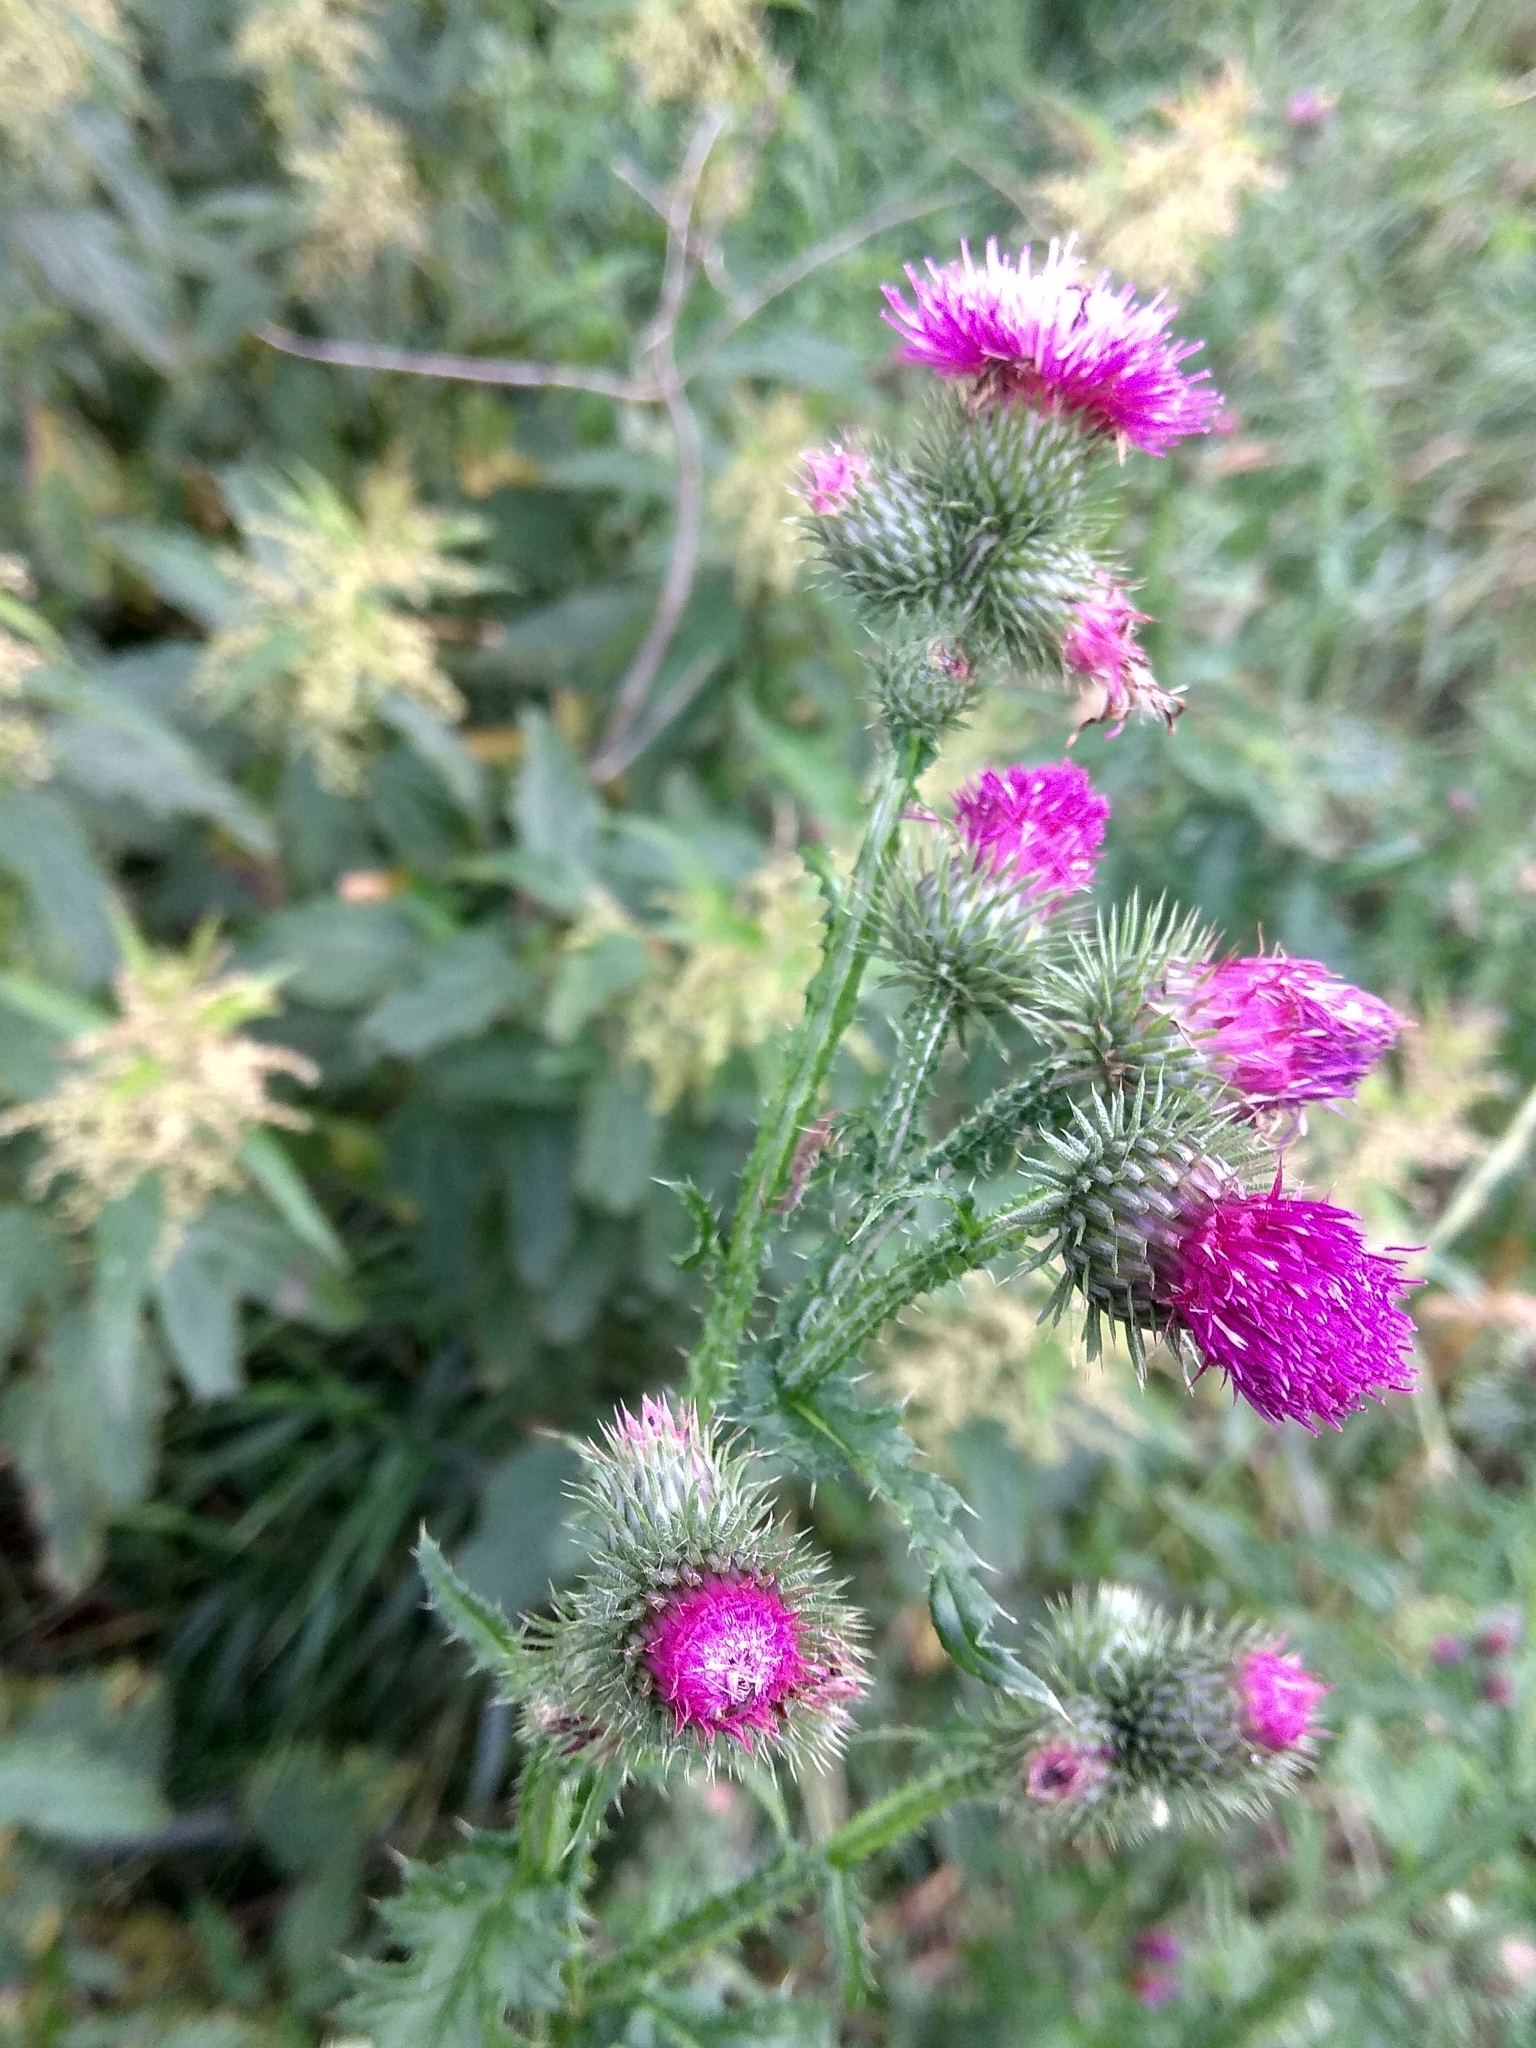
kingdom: Plantae
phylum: Tracheophyta
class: Magnoliopsida
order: Asterales
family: Asteraceae
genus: Carduus
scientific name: Carduus crispus
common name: Welted thistle
